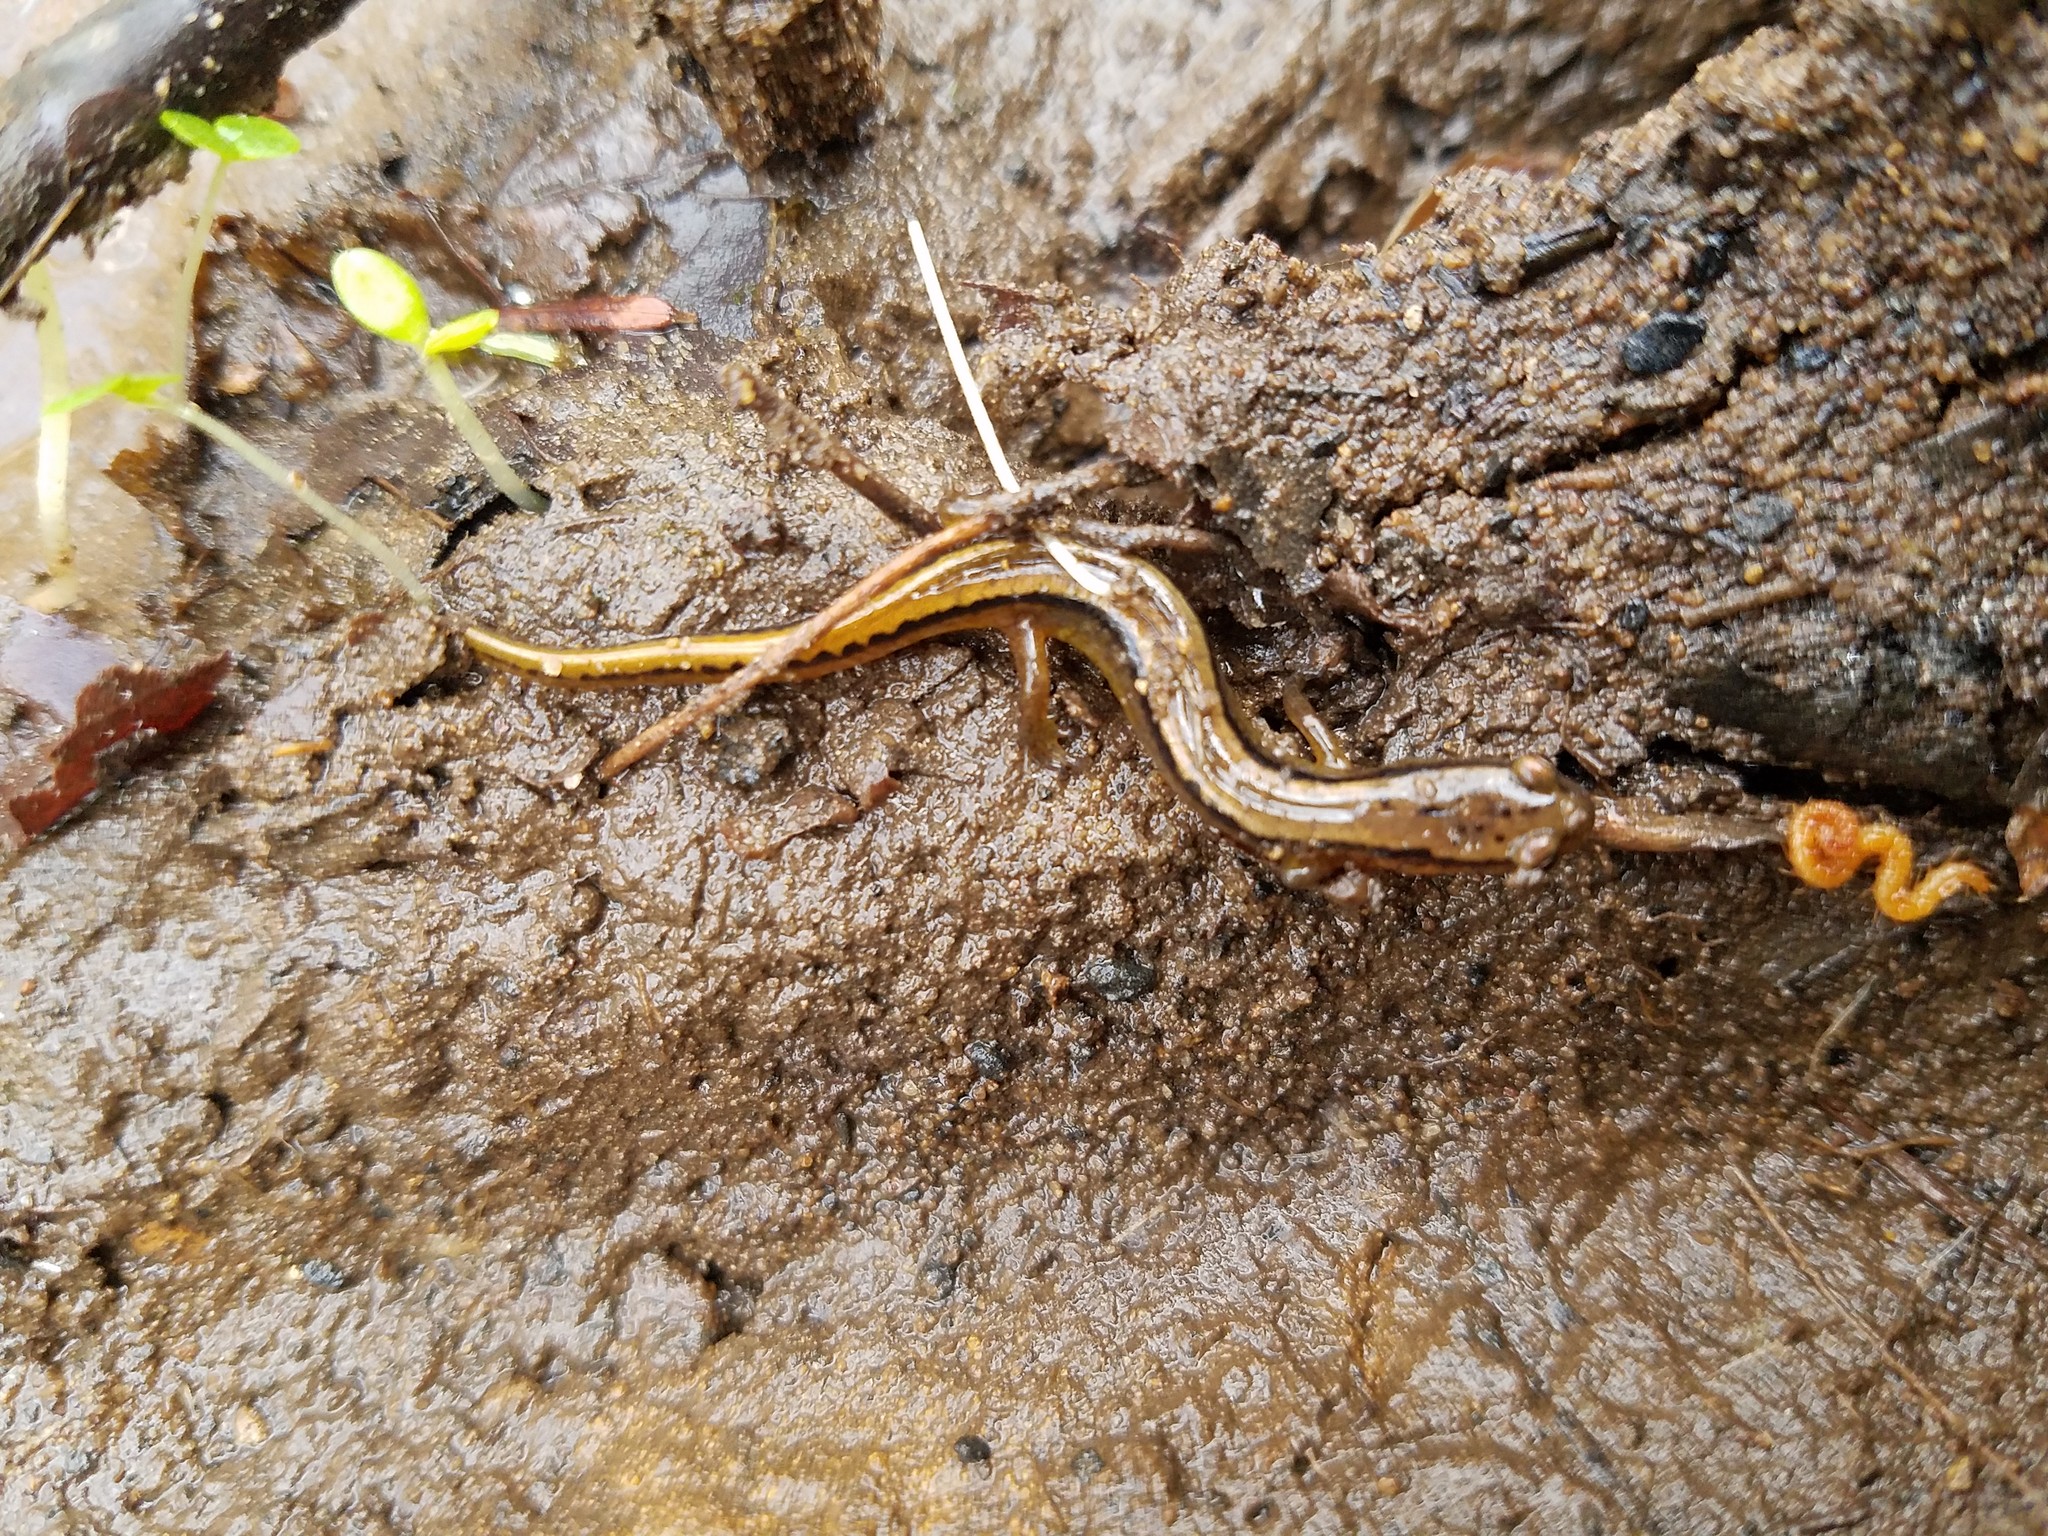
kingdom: Animalia
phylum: Chordata
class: Amphibia
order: Caudata
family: Plethodontidae
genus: Eurycea
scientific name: Eurycea bislineata
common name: Northern two-lined salamander
